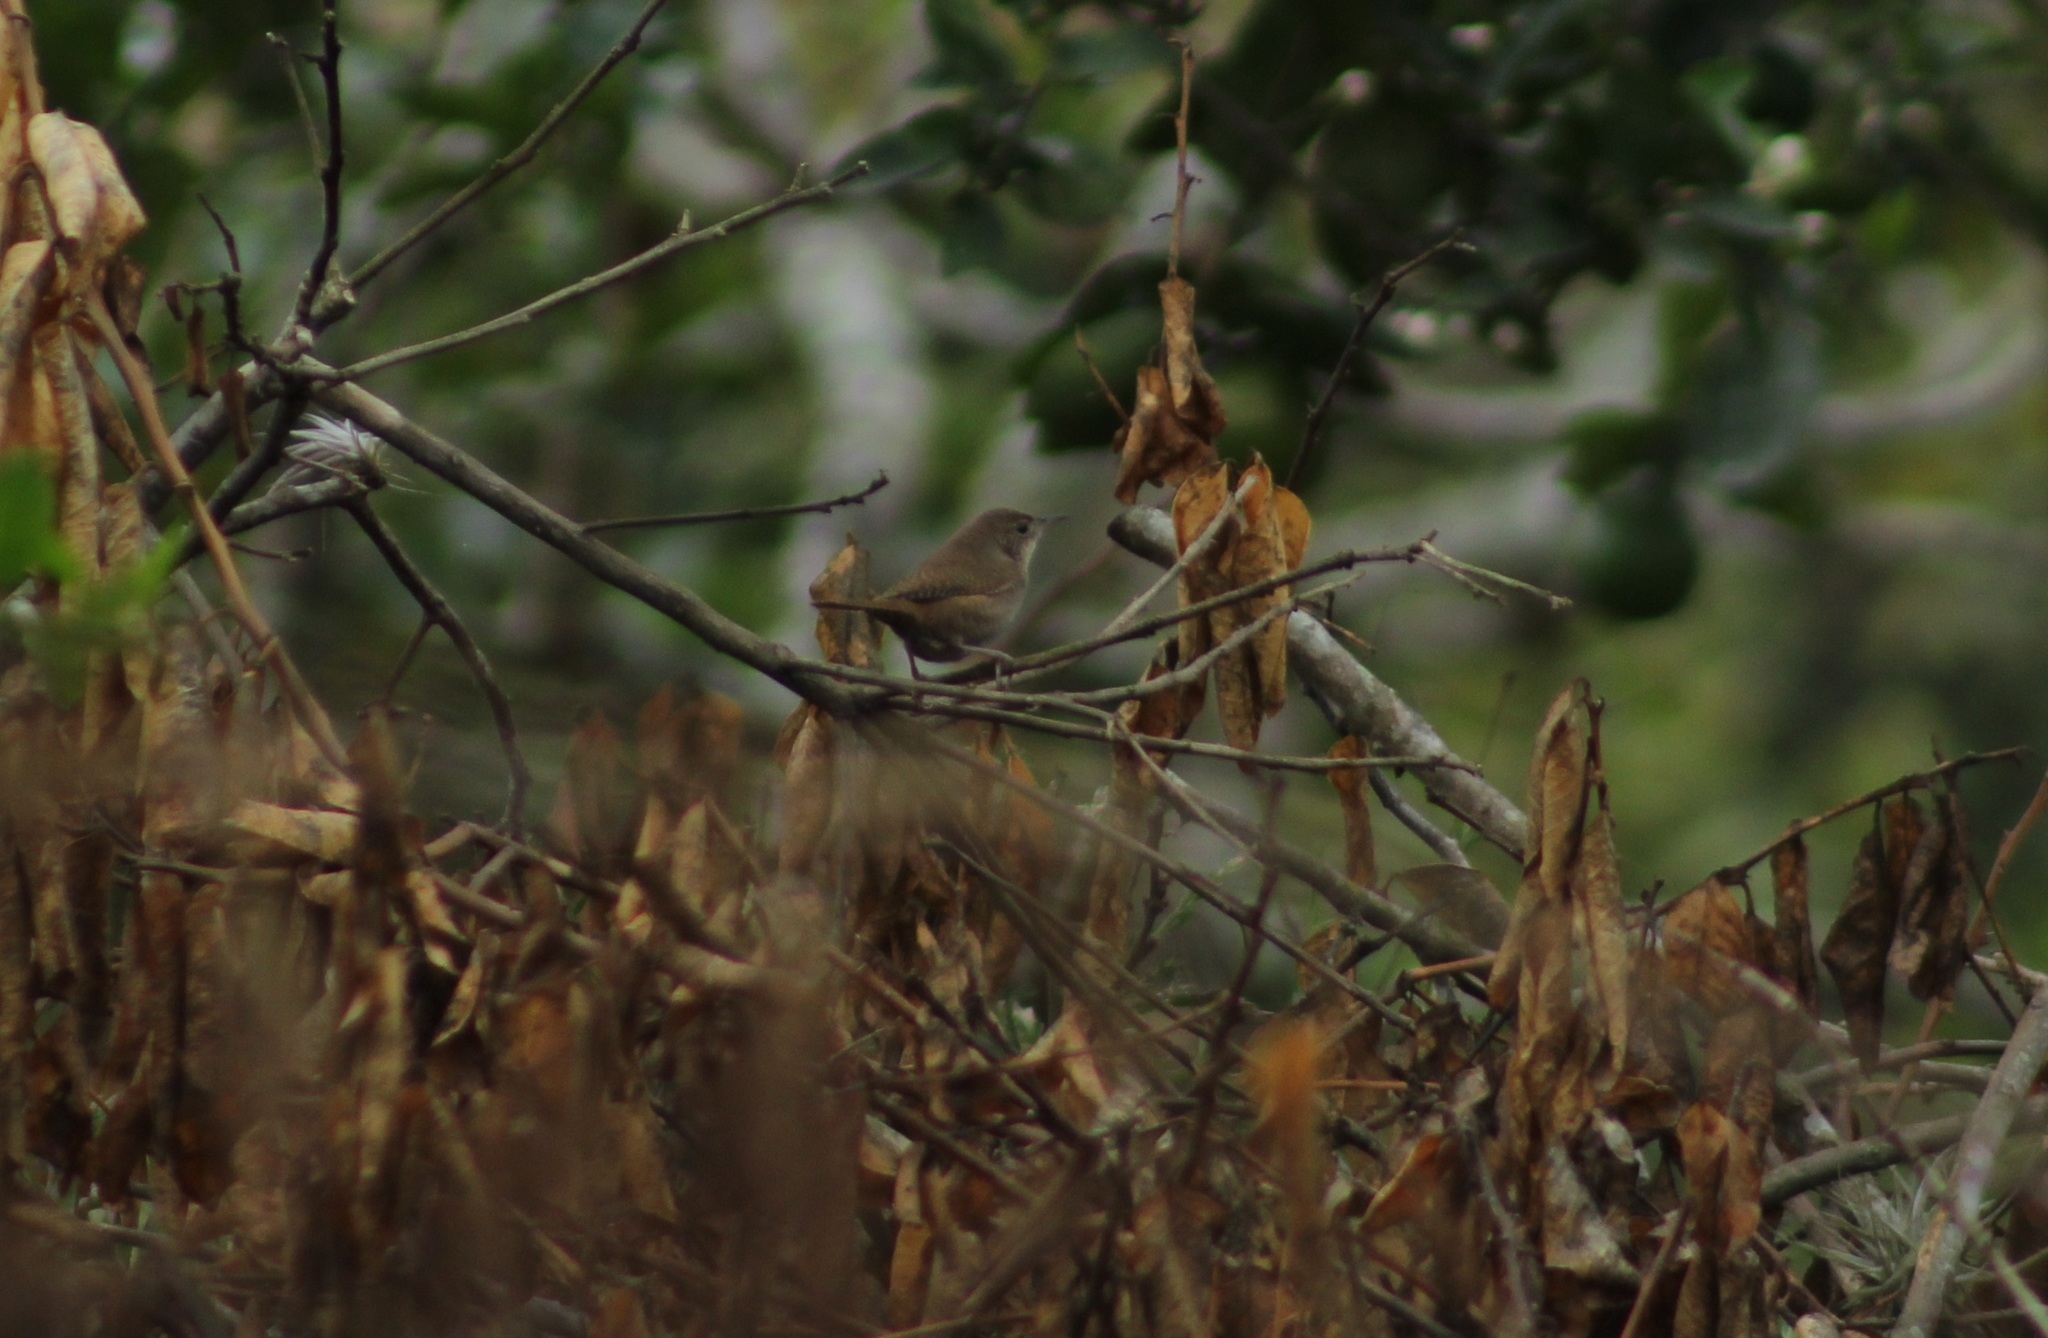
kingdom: Animalia
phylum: Chordata
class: Aves
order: Passeriformes
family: Troglodytidae
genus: Troglodytes
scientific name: Troglodytes aedon
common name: House wren
